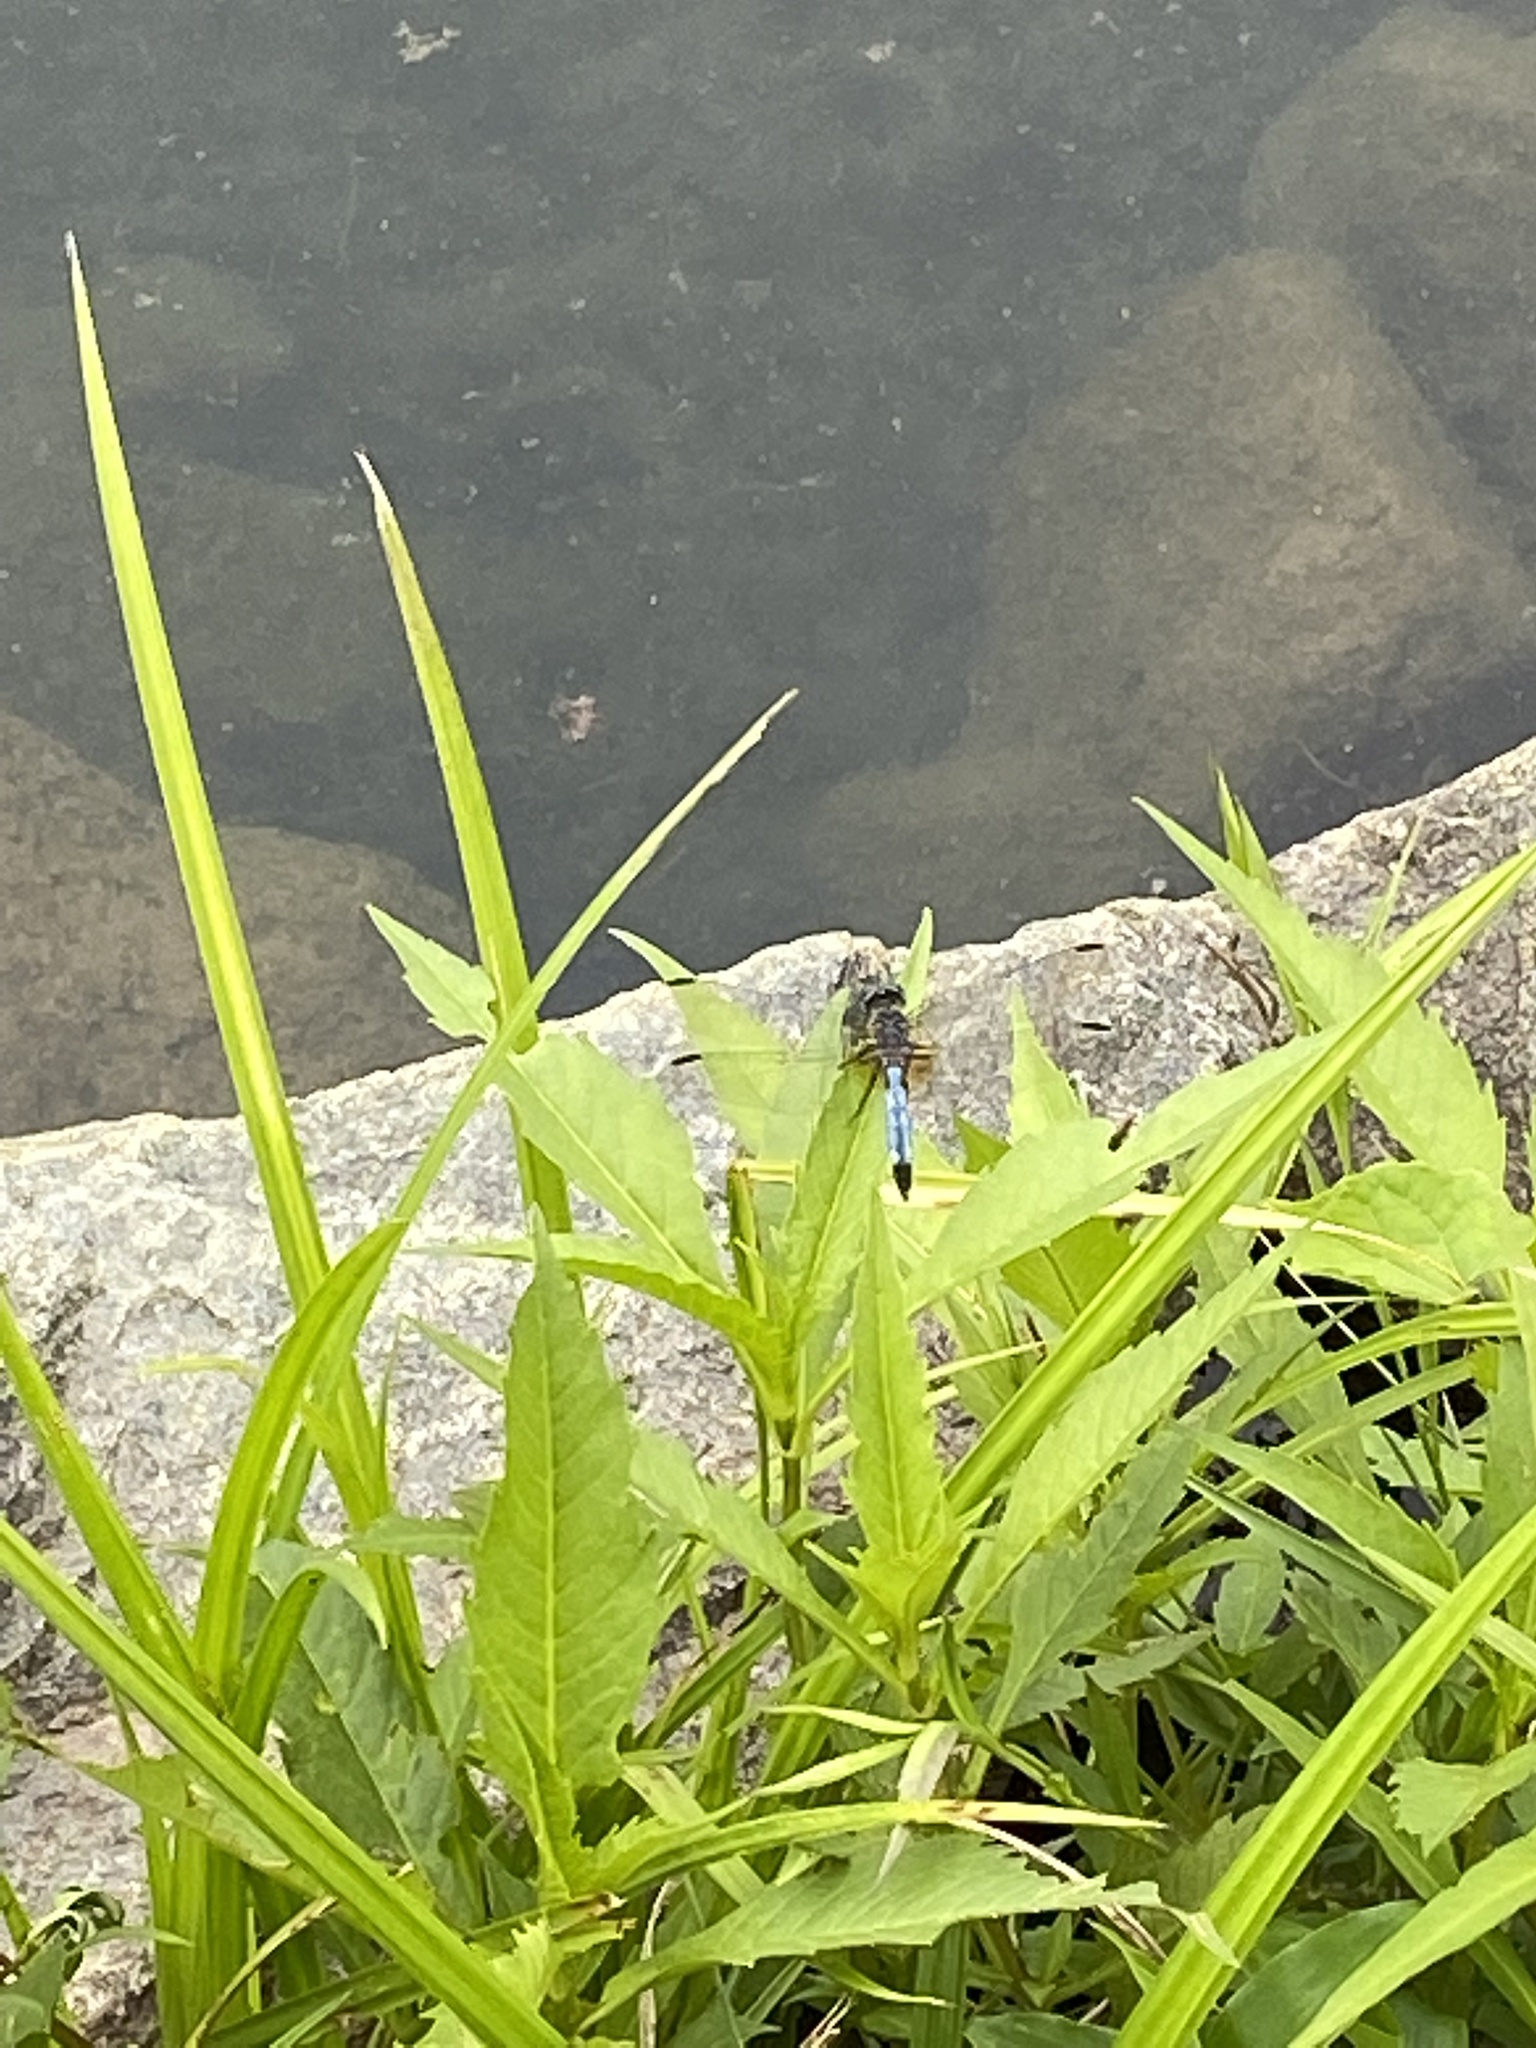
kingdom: Animalia
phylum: Arthropoda
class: Insecta
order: Odonata
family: Libellulidae
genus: Pachydiplax
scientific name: Pachydiplax longipennis
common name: Blue dasher
